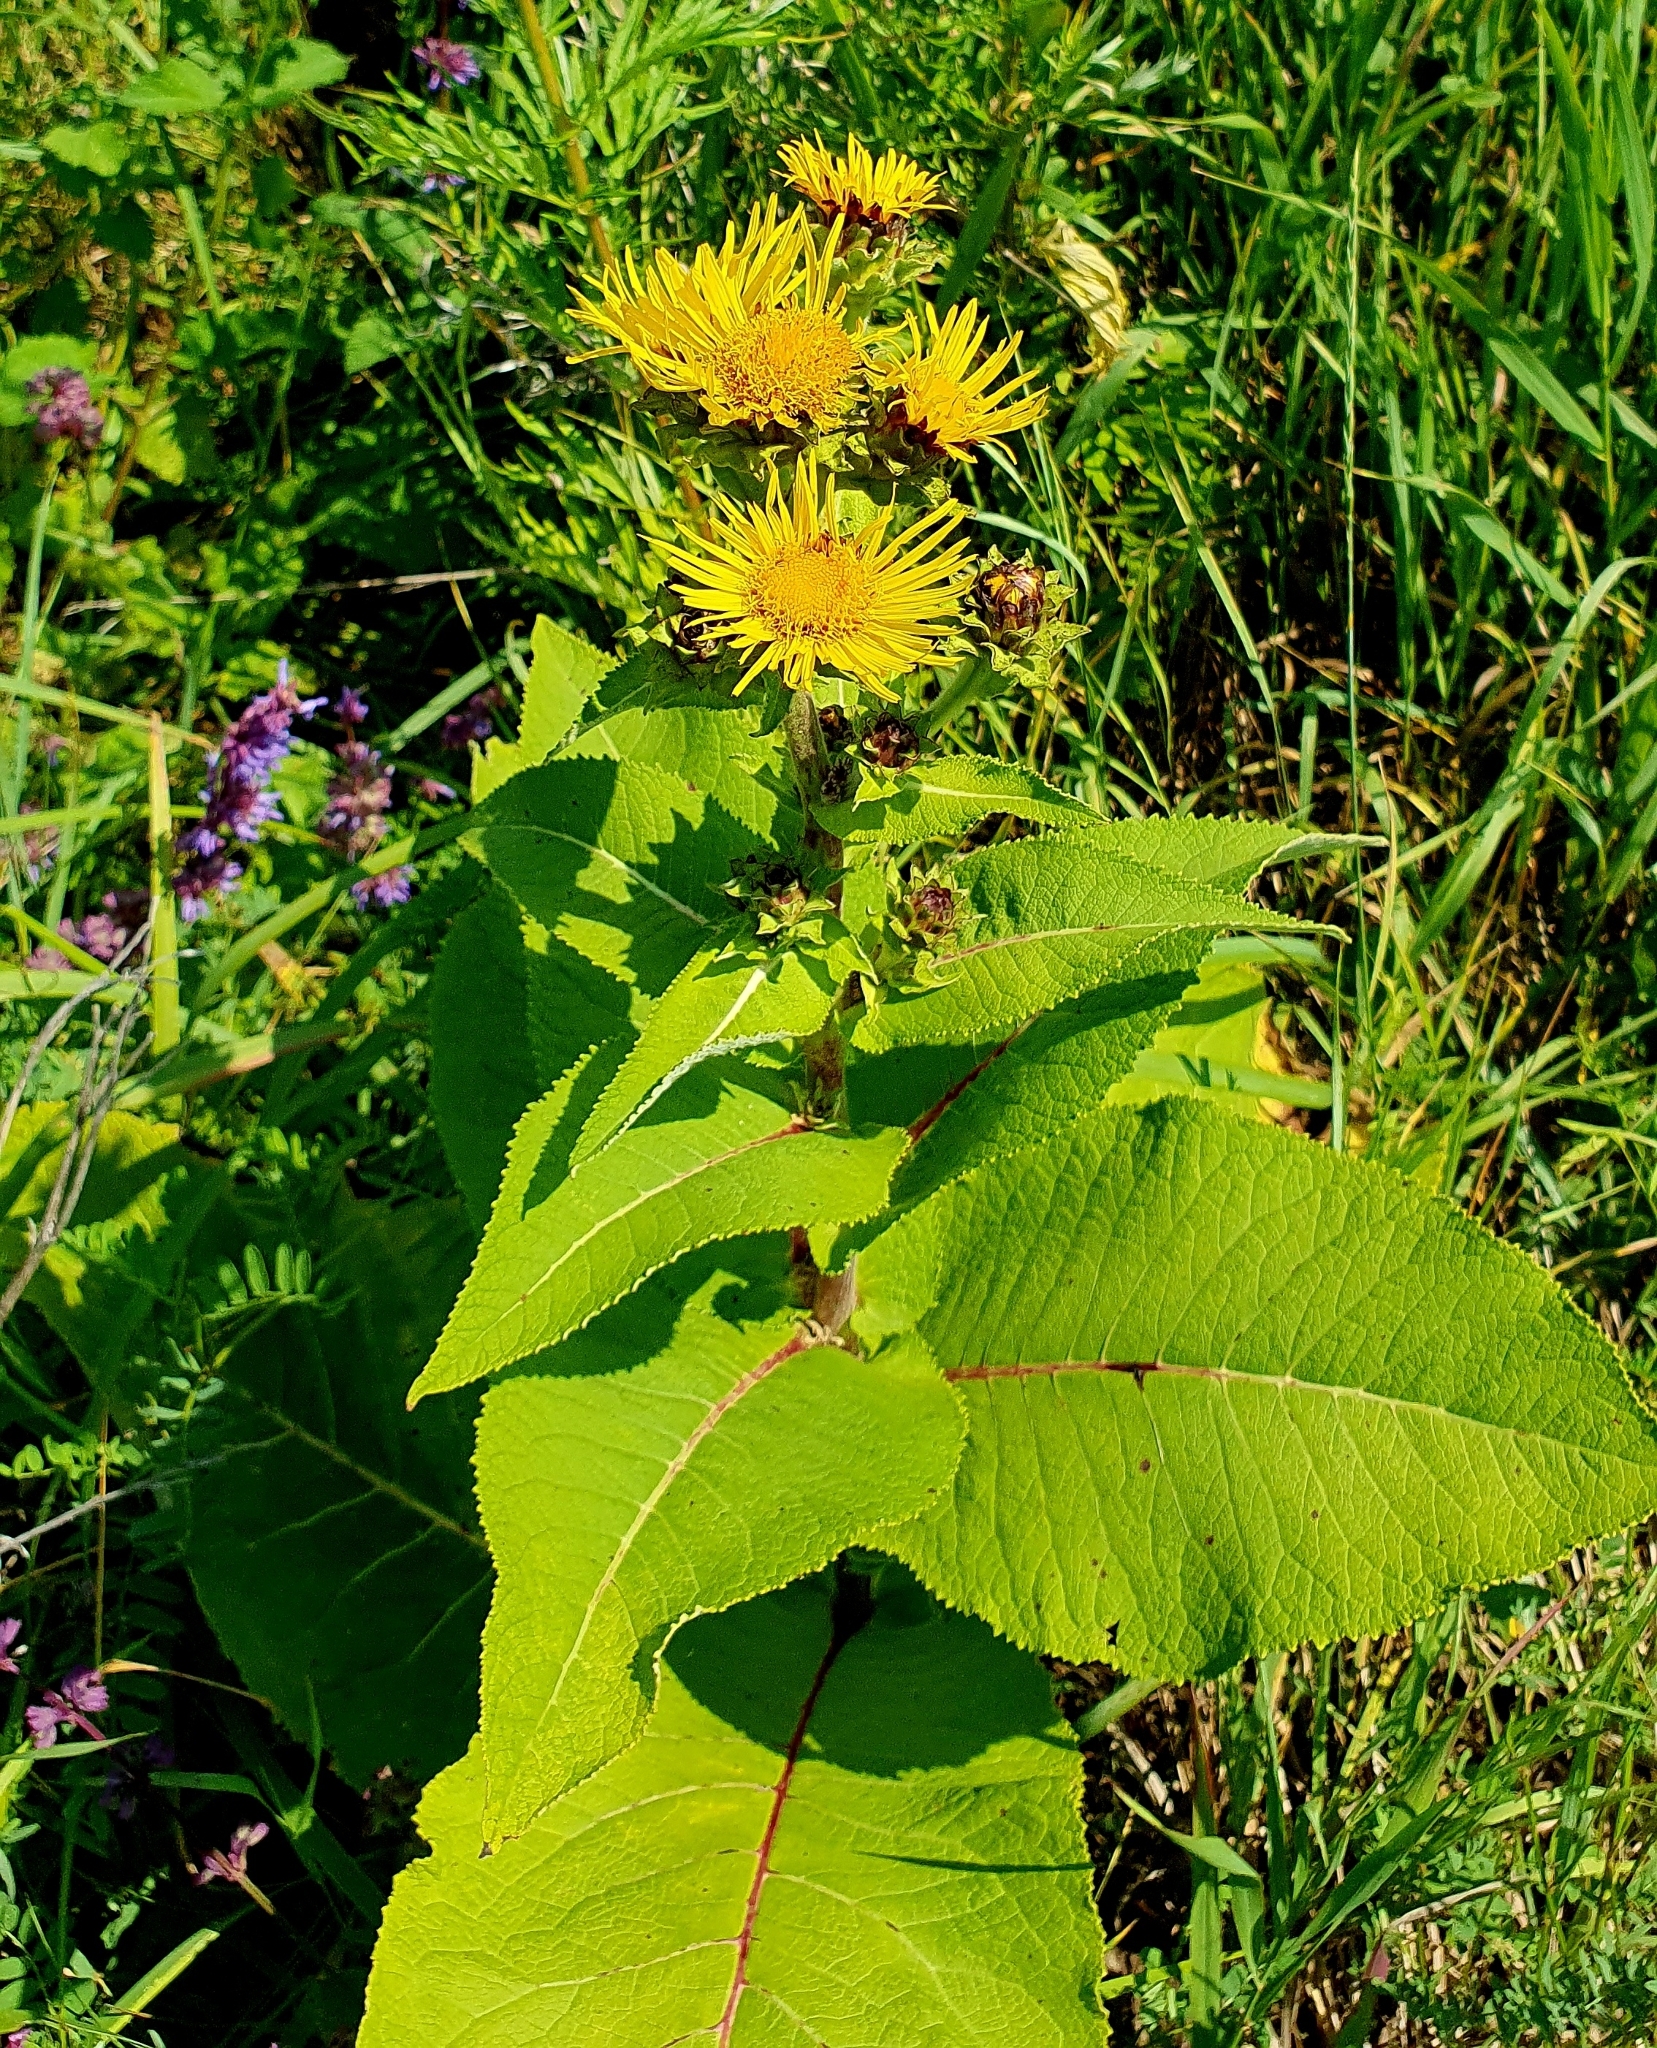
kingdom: Plantae
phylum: Tracheophyta
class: Magnoliopsida
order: Asterales
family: Asteraceae
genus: Inula
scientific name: Inula helenium
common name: Elecampane
